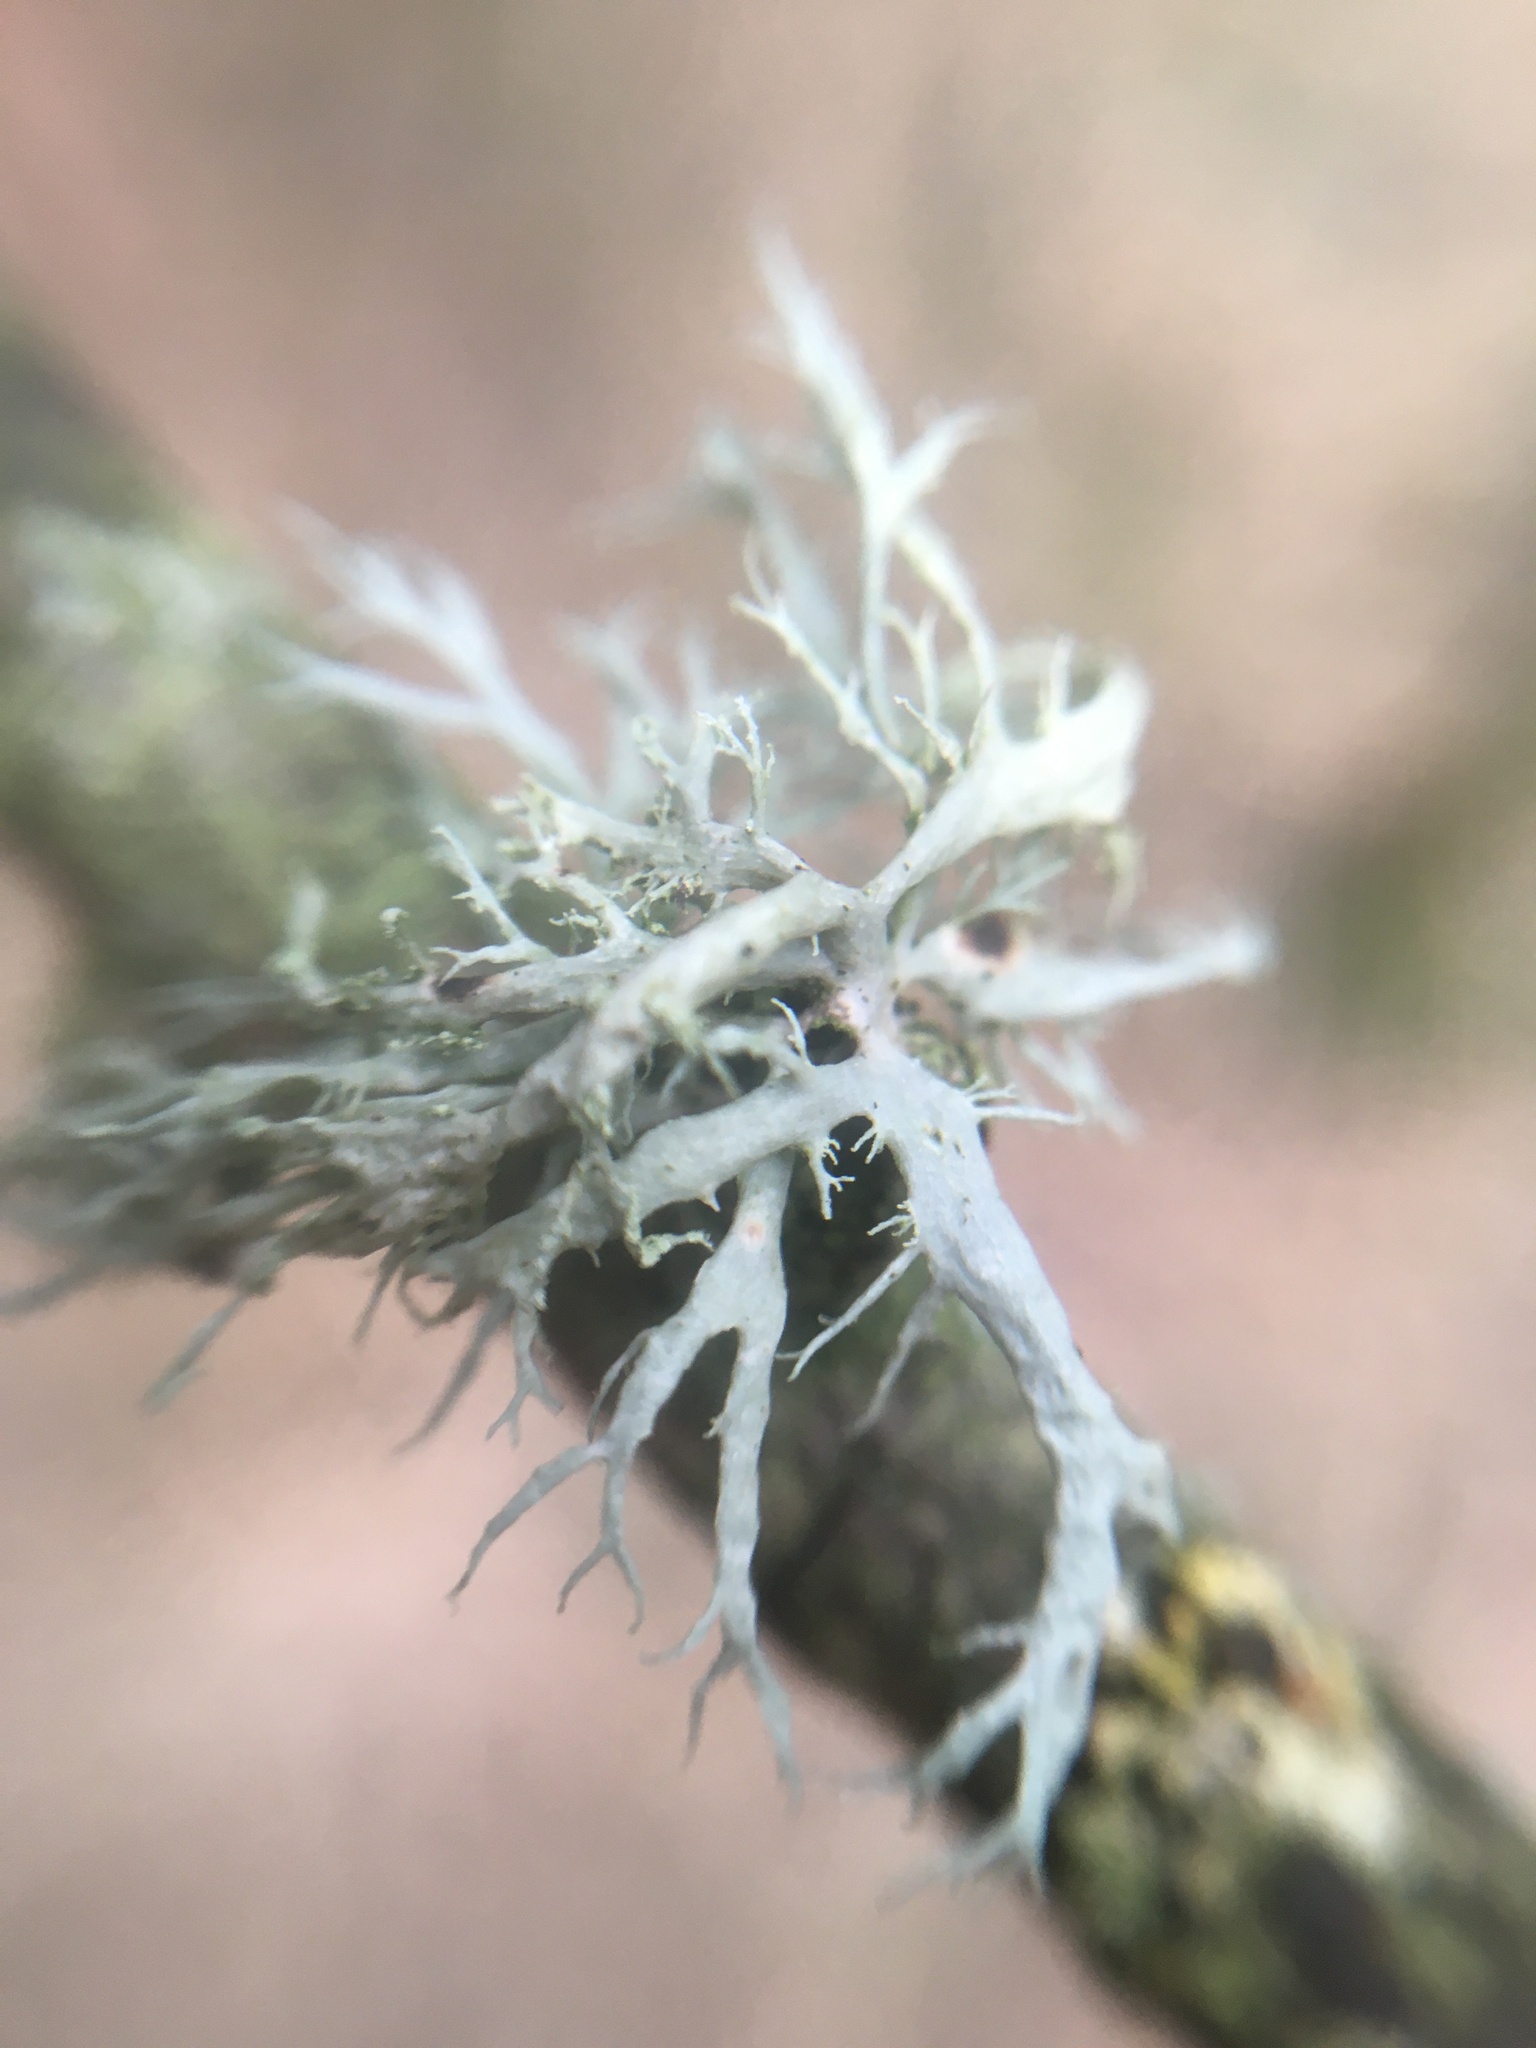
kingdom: Fungi
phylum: Ascomycota
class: Lecanoromycetes
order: Lecanorales
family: Ramalinaceae
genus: Ramalina
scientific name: Ramalina farinacea
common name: Farinose cartilage lichen
